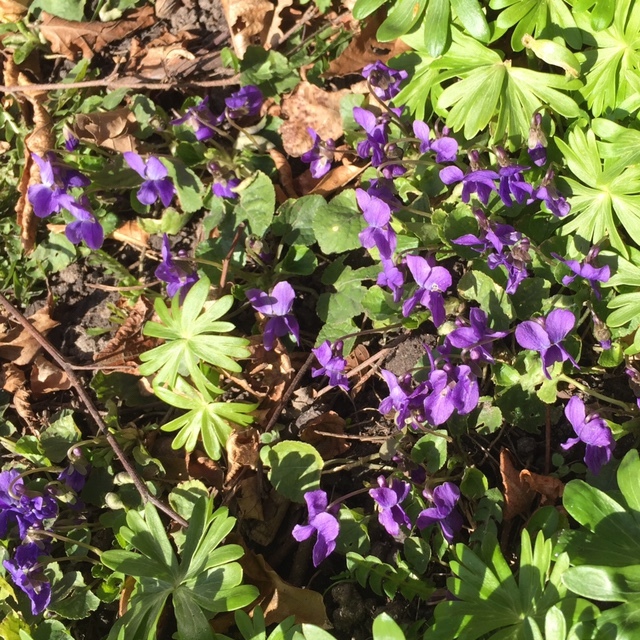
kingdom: Plantae
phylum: Tracheophyta
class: Magnoliopsida
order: Malpighiales
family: Violaceae
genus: Viola
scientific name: Viola odorata
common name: Sweet violet
